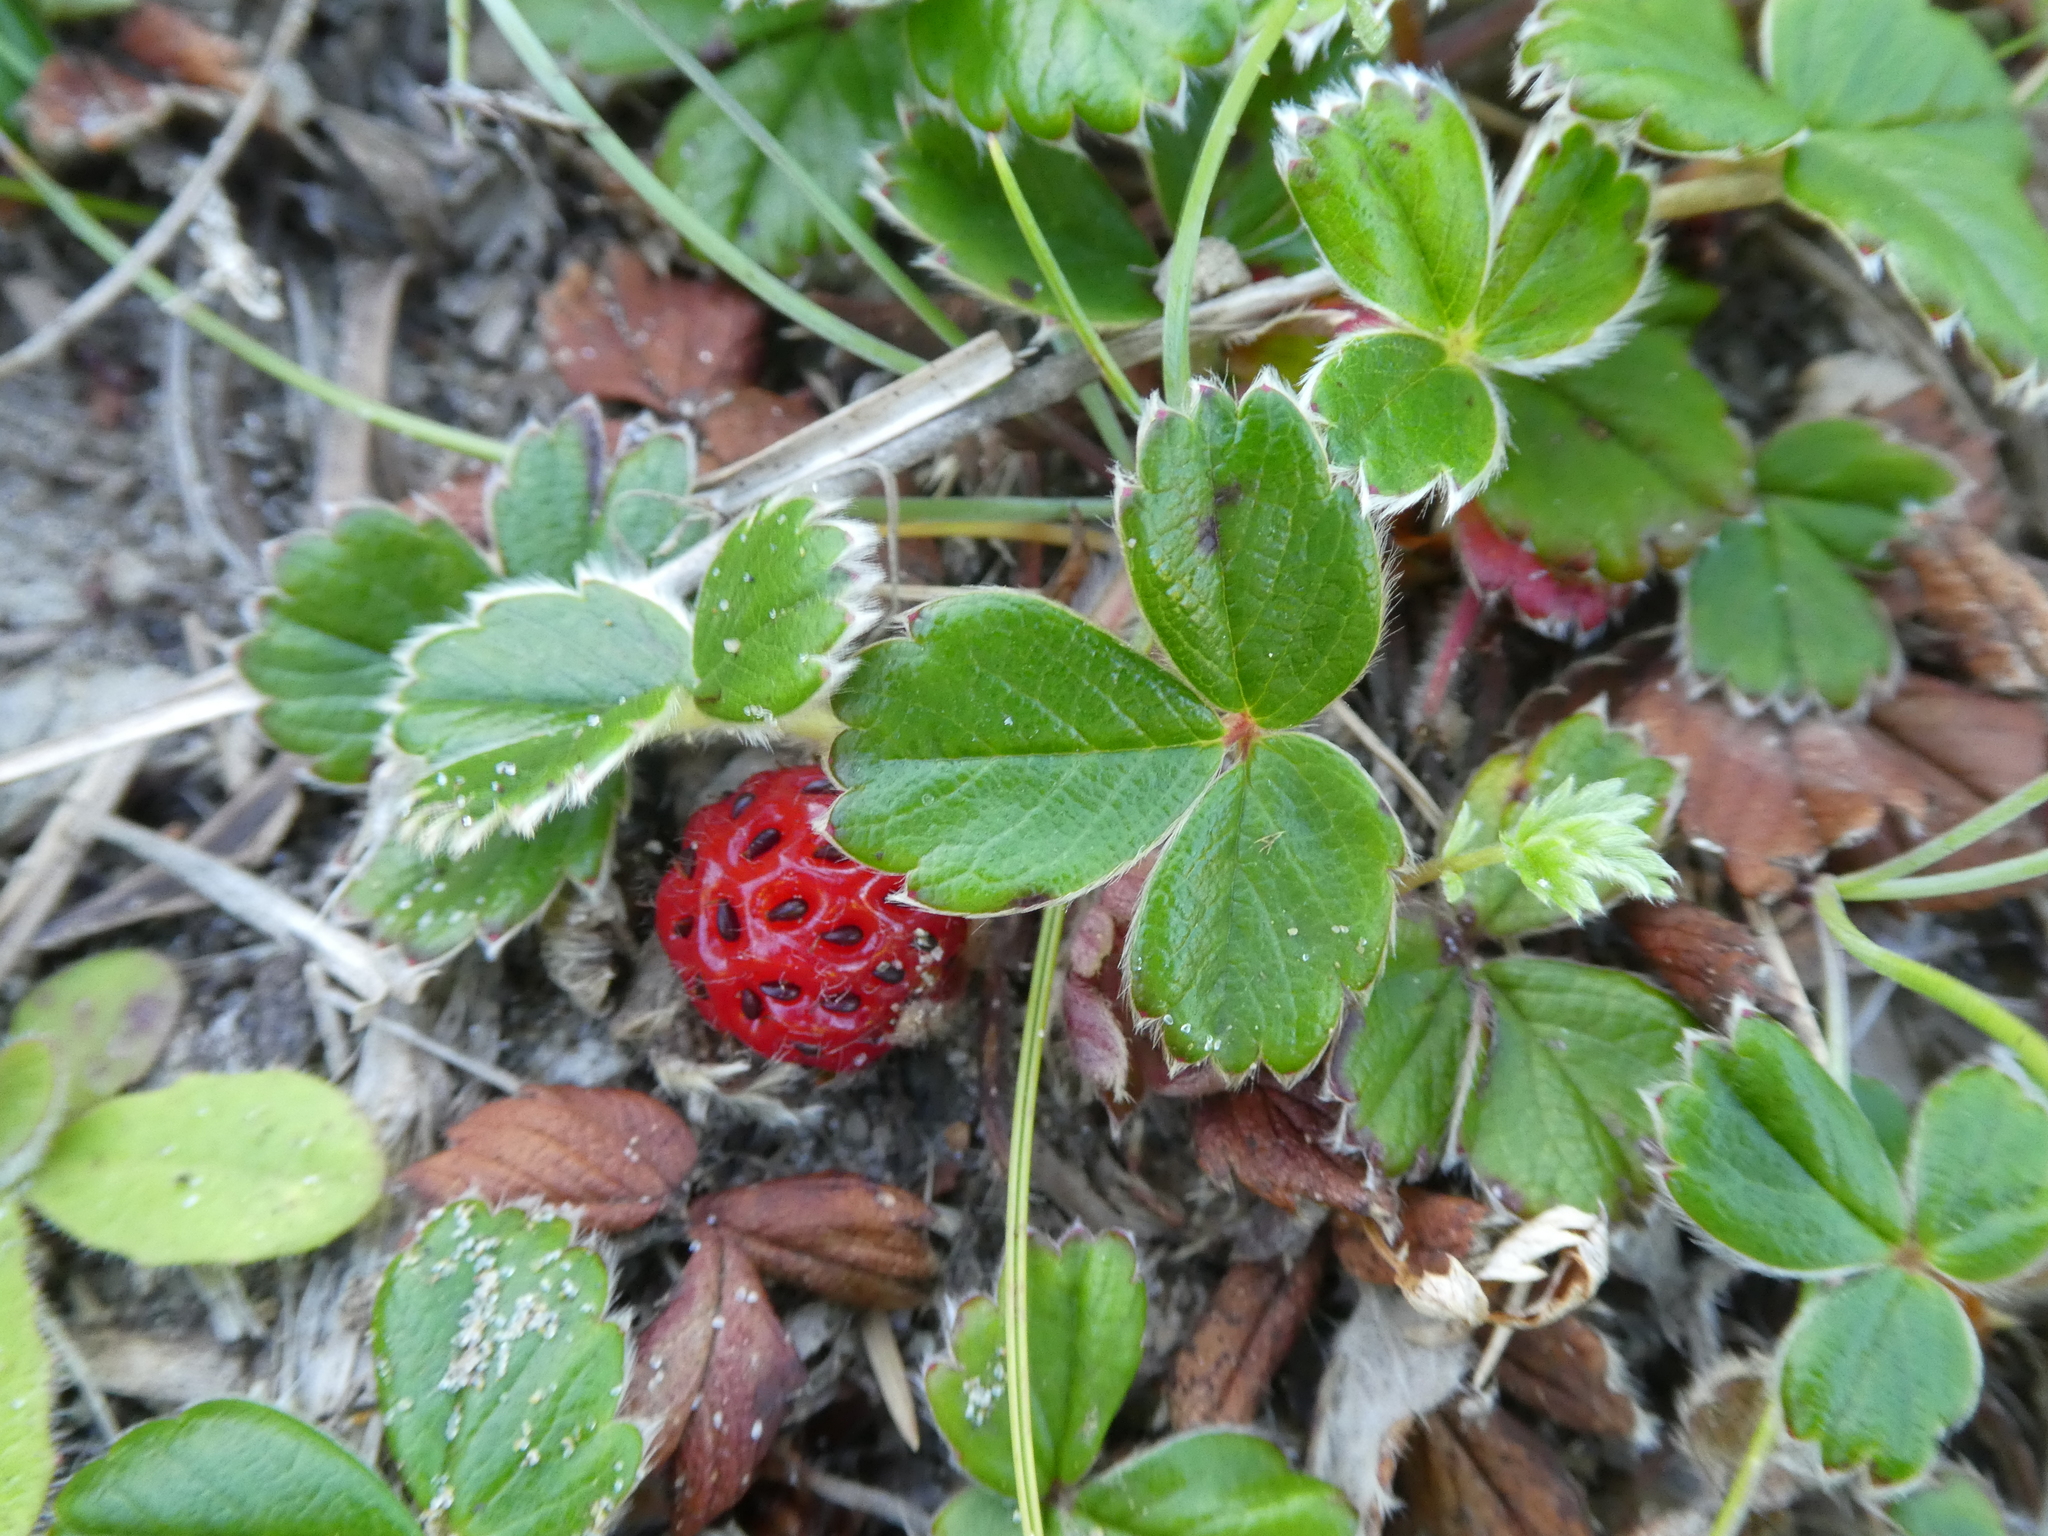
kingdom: Plantae
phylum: Tracheophyta
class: Magnoliopsida
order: Rosales
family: Rosaceae
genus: Fragaria
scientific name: Fragaria chiloensis
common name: Beach strawberry
